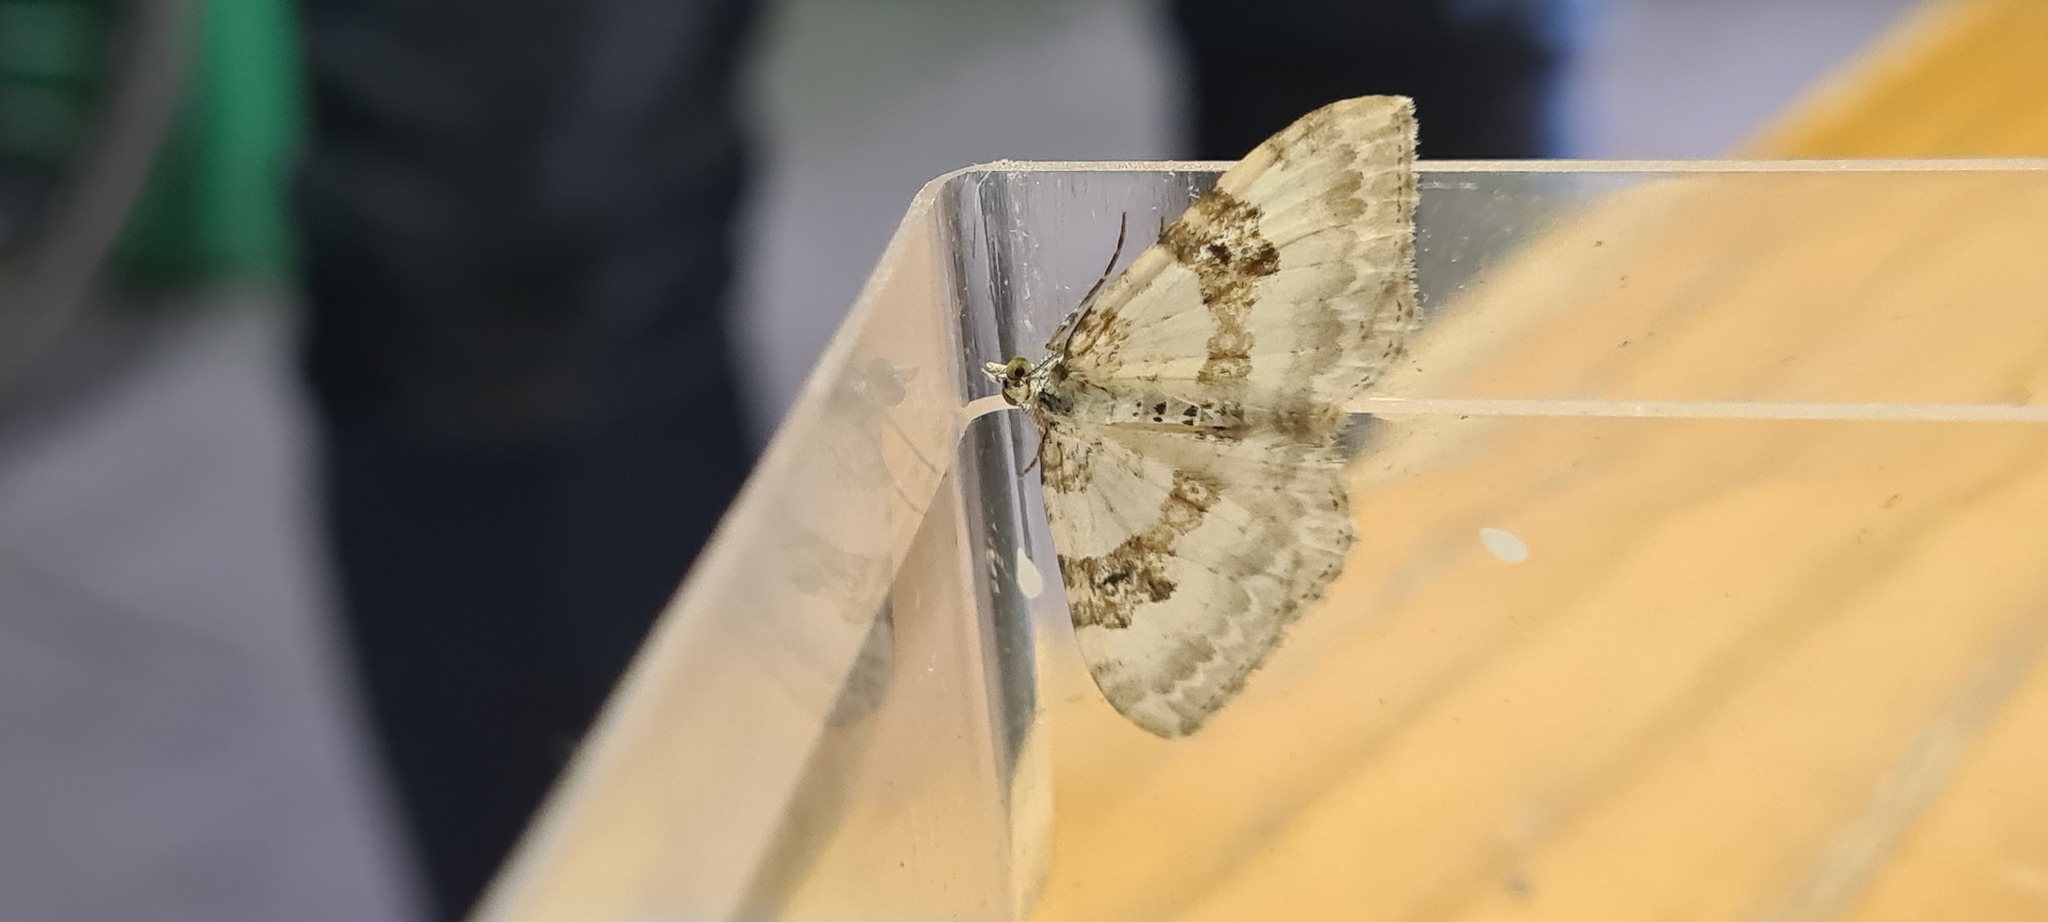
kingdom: Animalia
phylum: Arthropoda
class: Insecta
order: Lepidoptera
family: Geometridae
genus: Xanthorhoe
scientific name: Xanthorhoe montanata
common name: Silver-ground carpet
